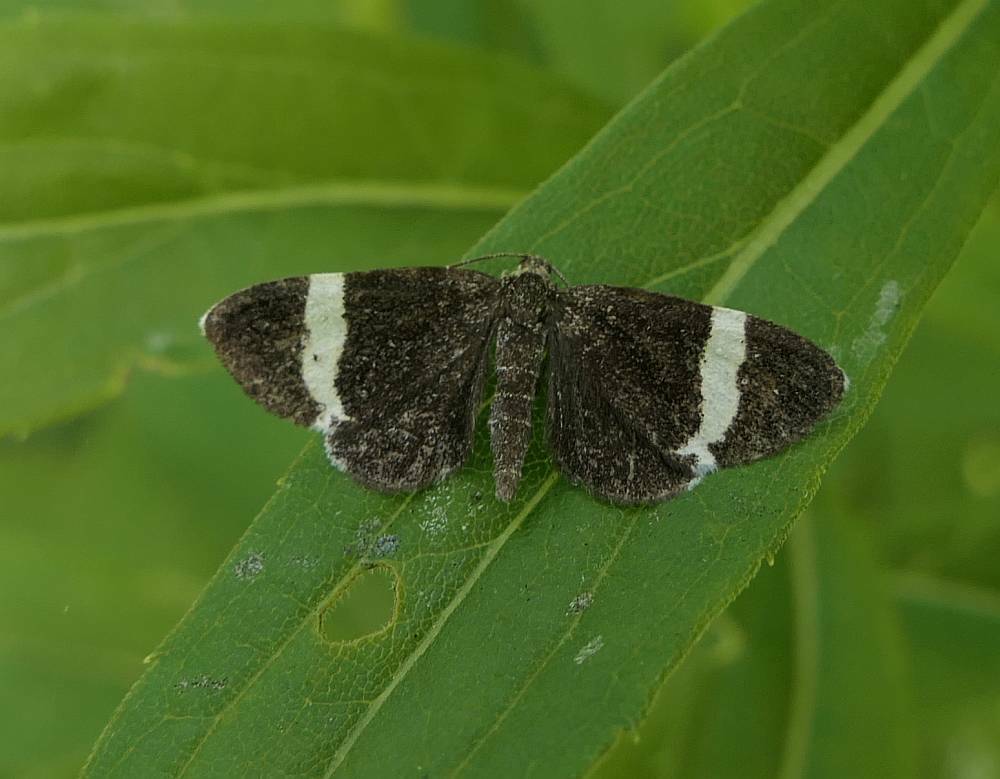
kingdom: Animalia
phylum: Arthropoda
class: Insecta
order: Lepidoptera
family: Geometridae
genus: Trichodezia
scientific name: Trichodezia albovittata
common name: White striped black
